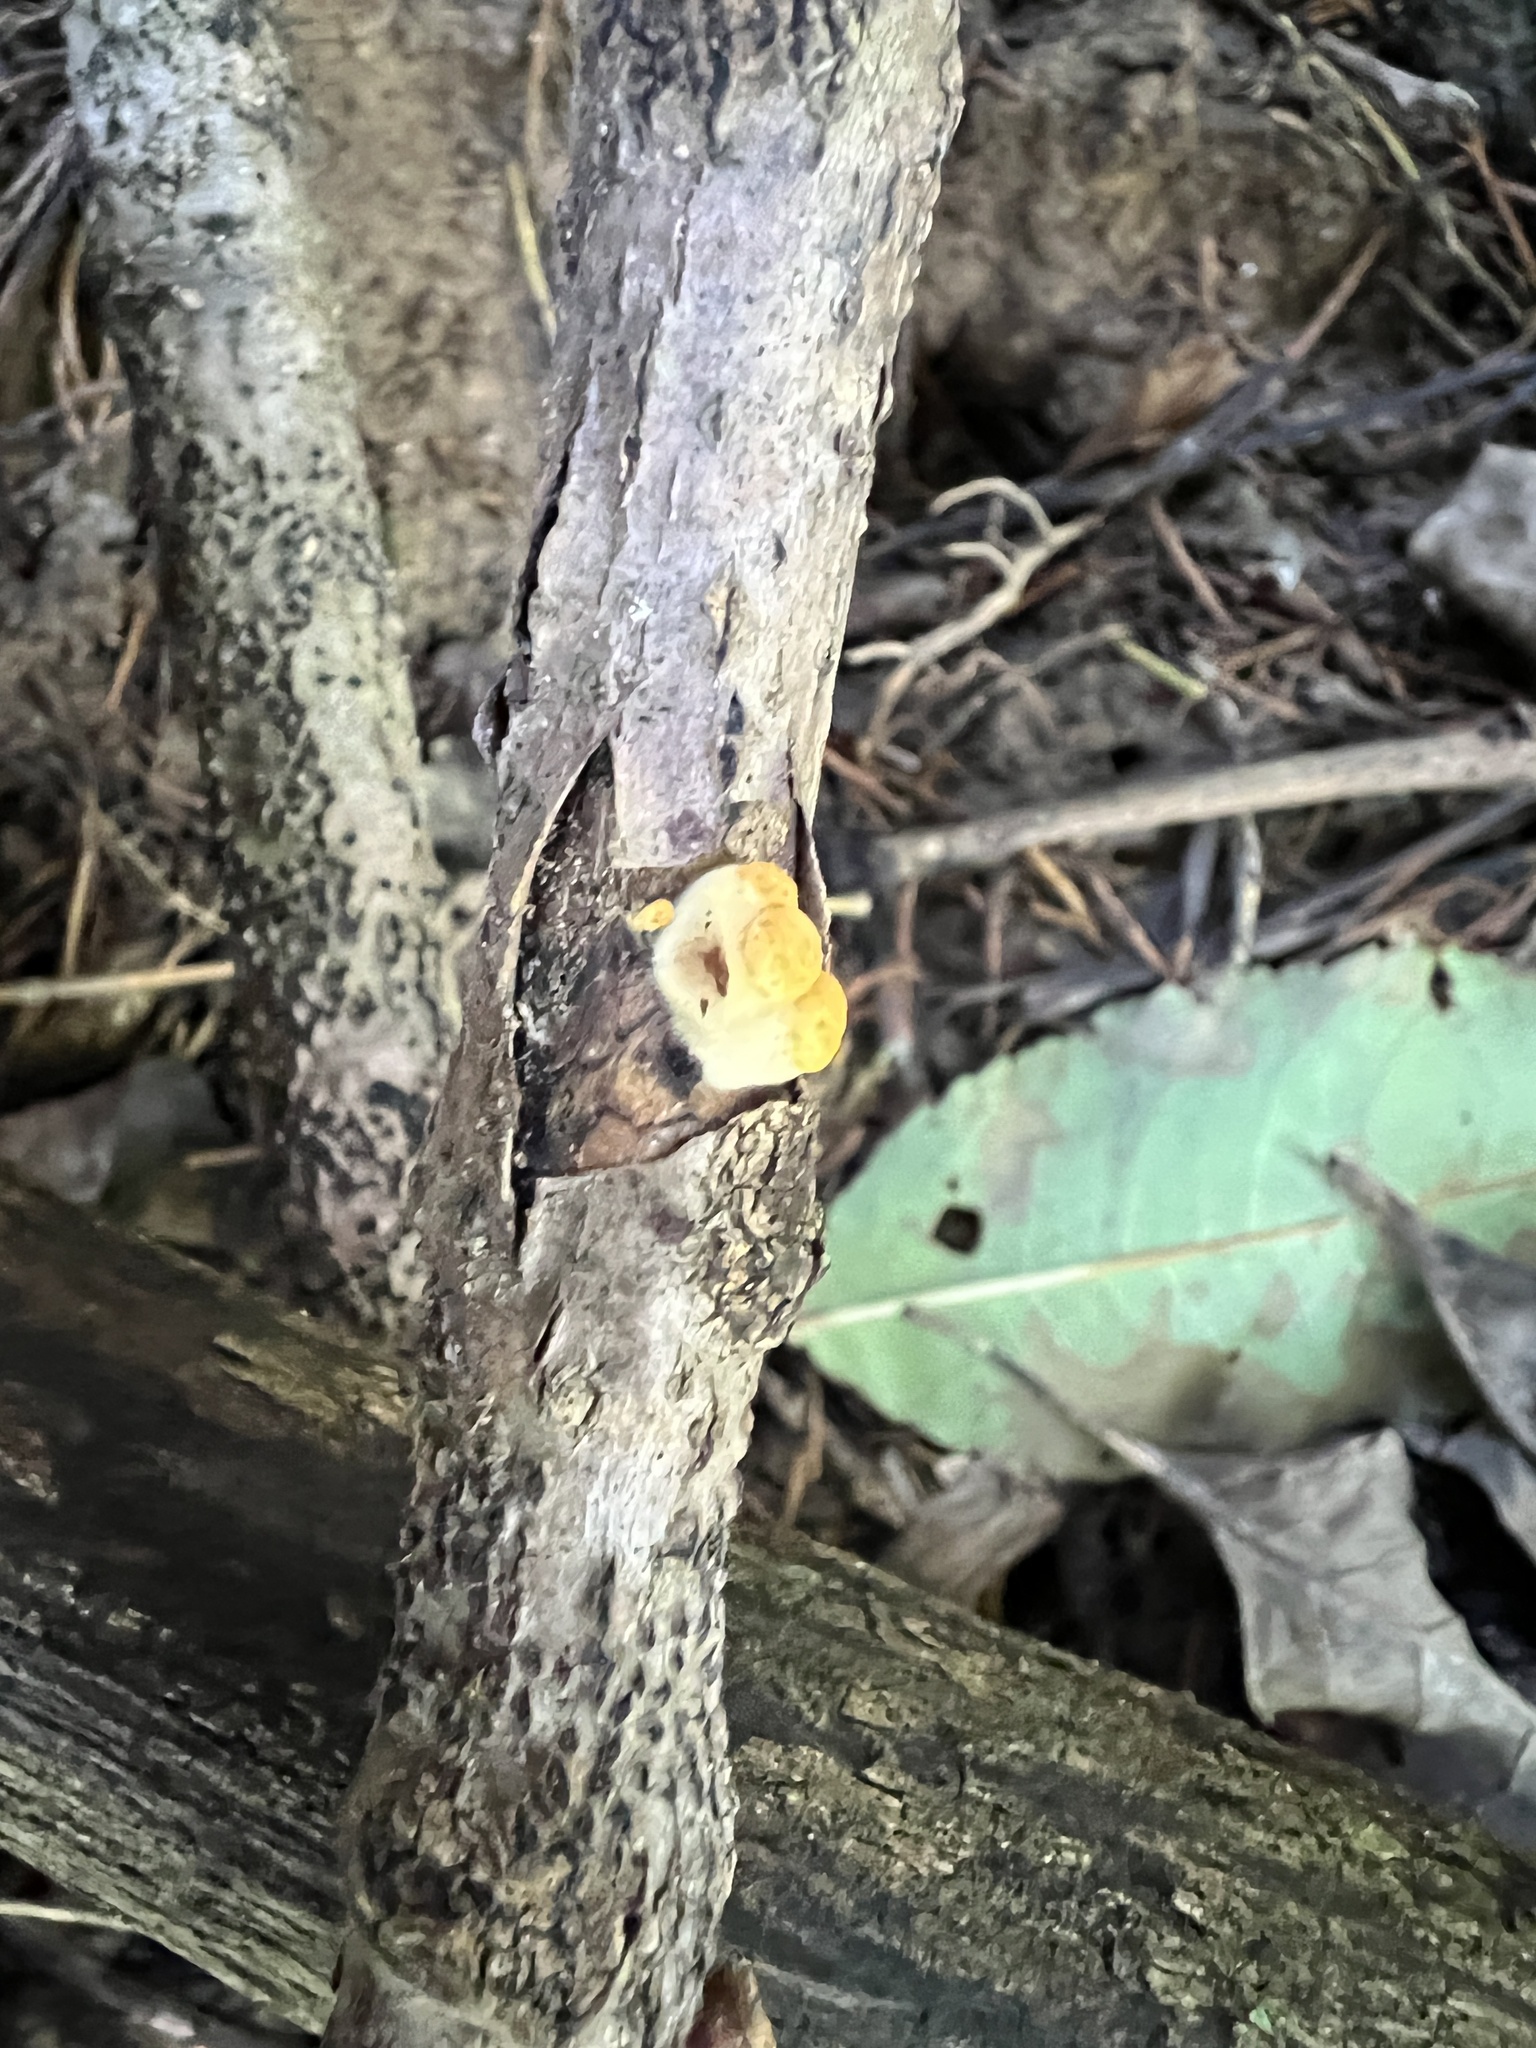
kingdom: Fungi
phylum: Basidiomycota
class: Agaricomycetes
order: Agaricales
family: Nidulariaceae
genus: Crucibulum
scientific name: Crucibulum parvulum
